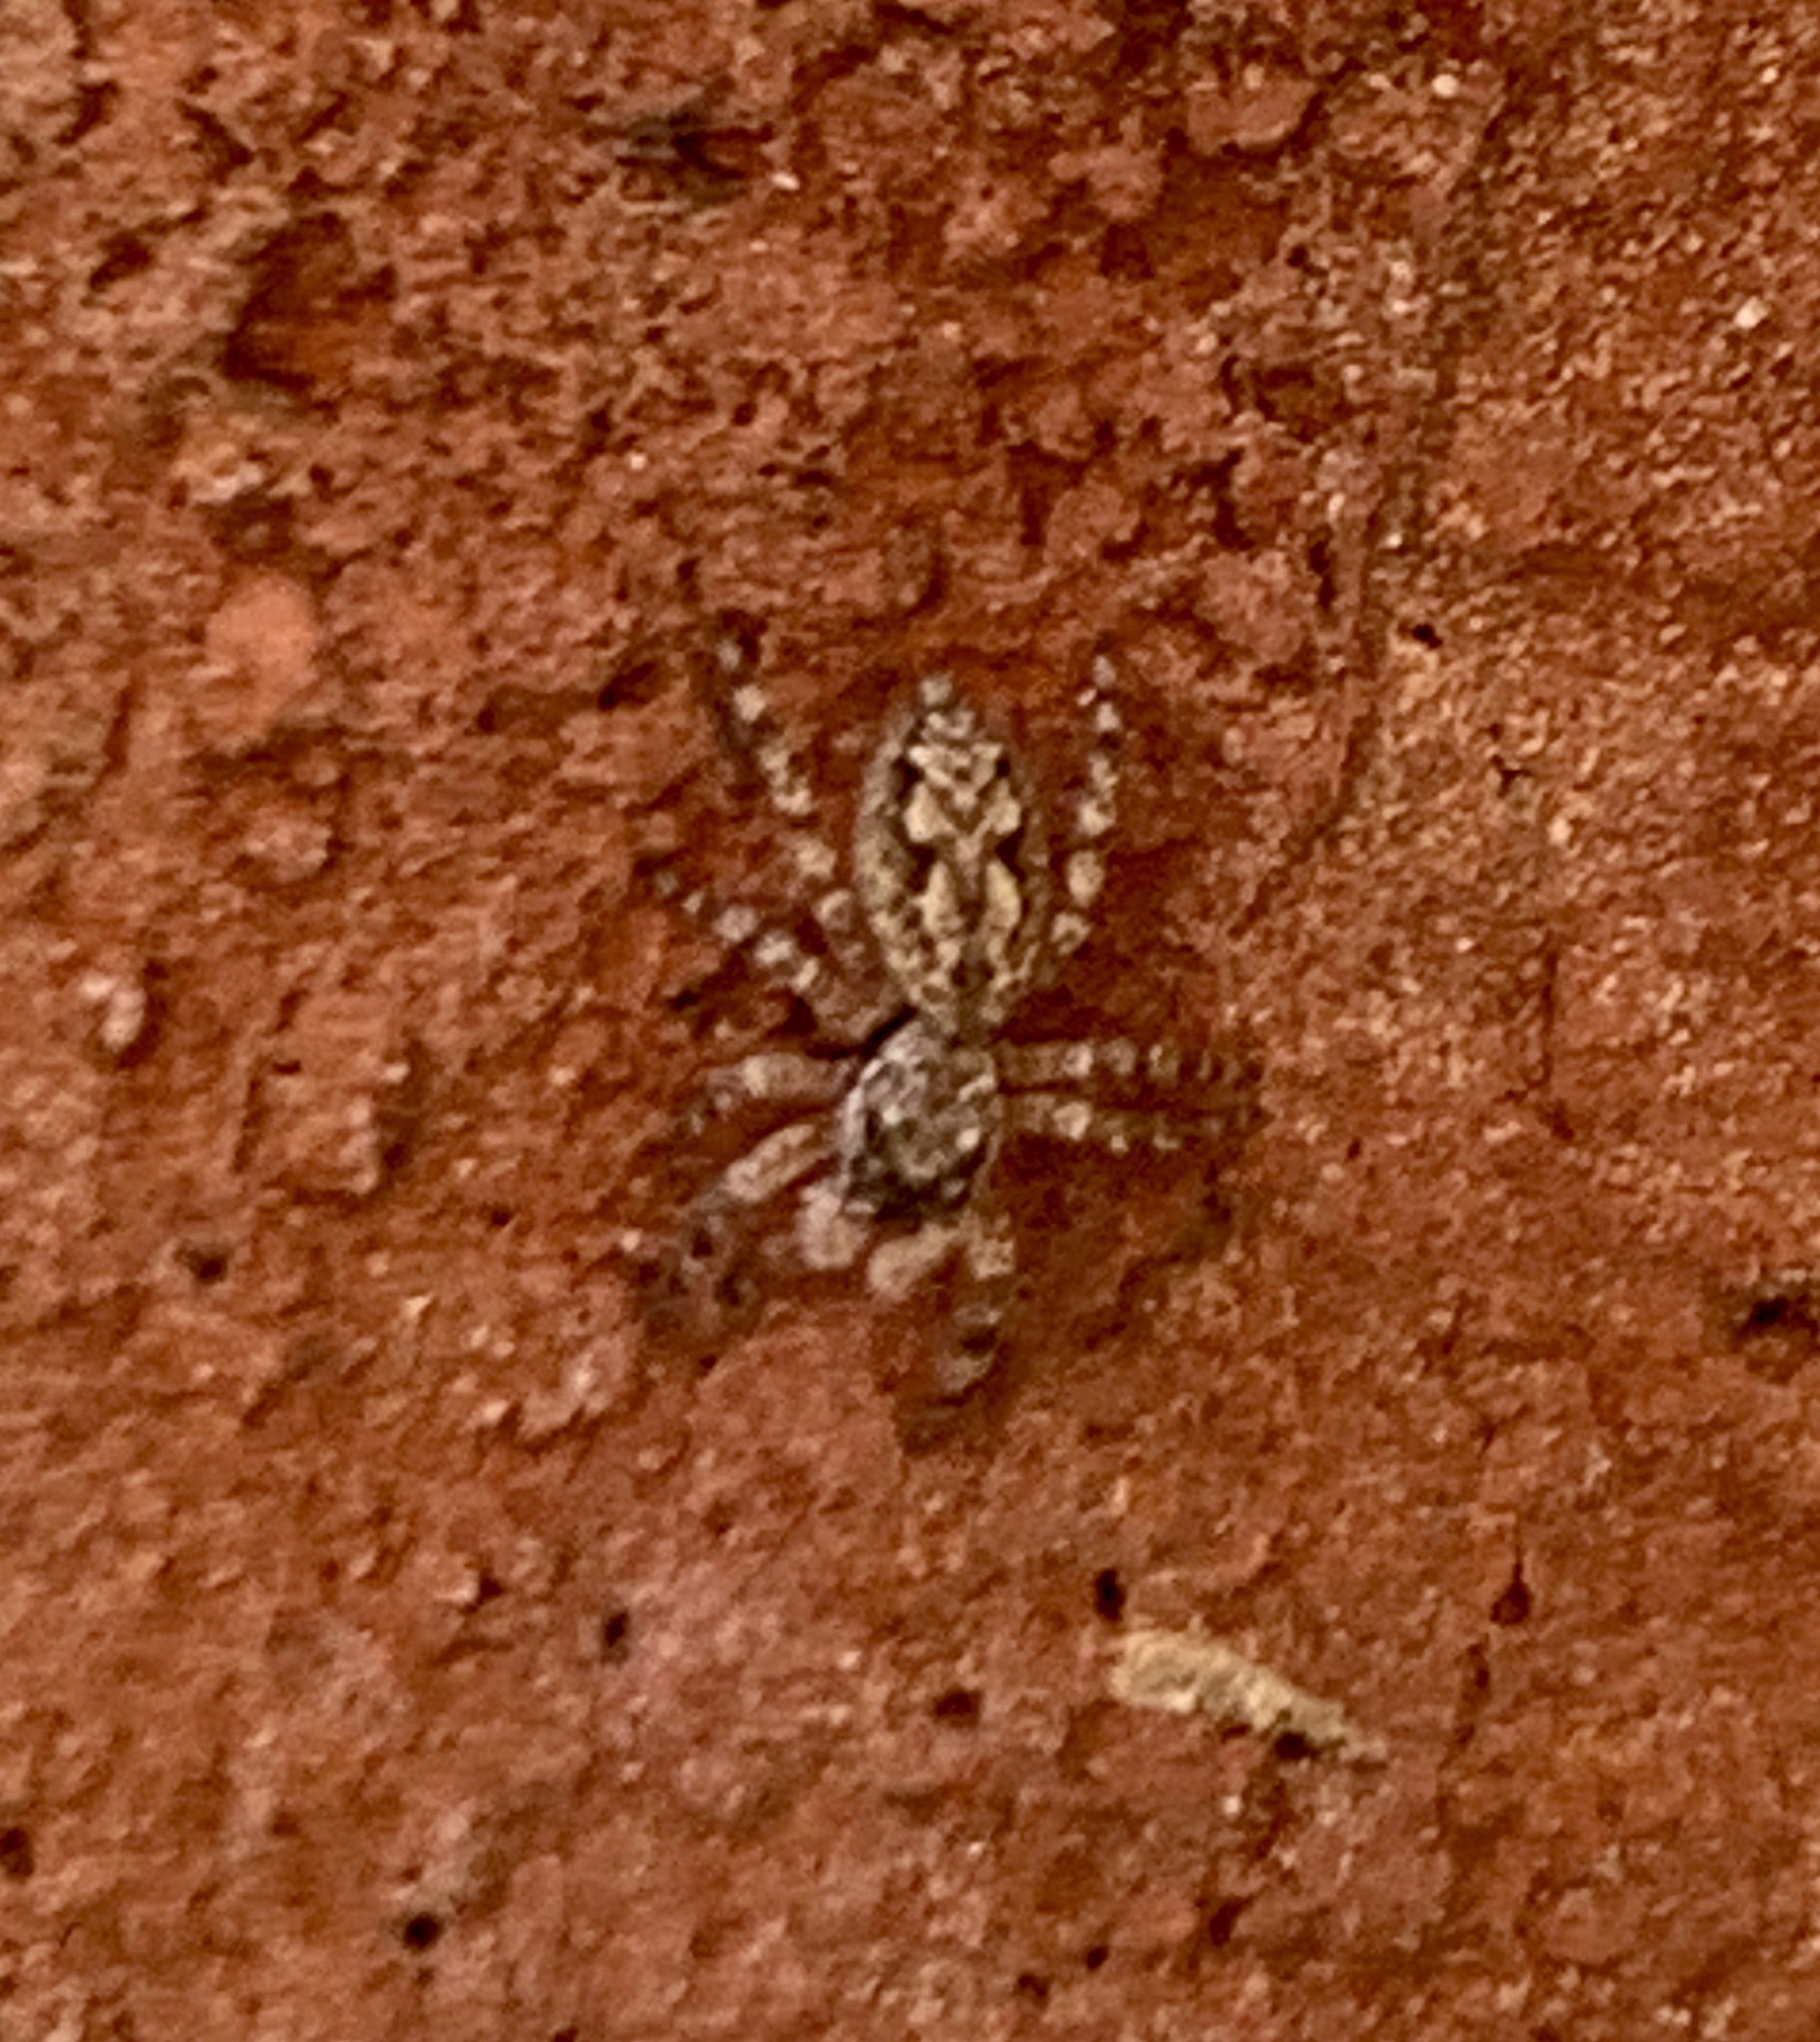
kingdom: Animalia
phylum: Arthropoda
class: Arachnida
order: Araneae
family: Salticidae
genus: Platycryptus
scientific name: Platycryptus undatus
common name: Tan jumping spider
